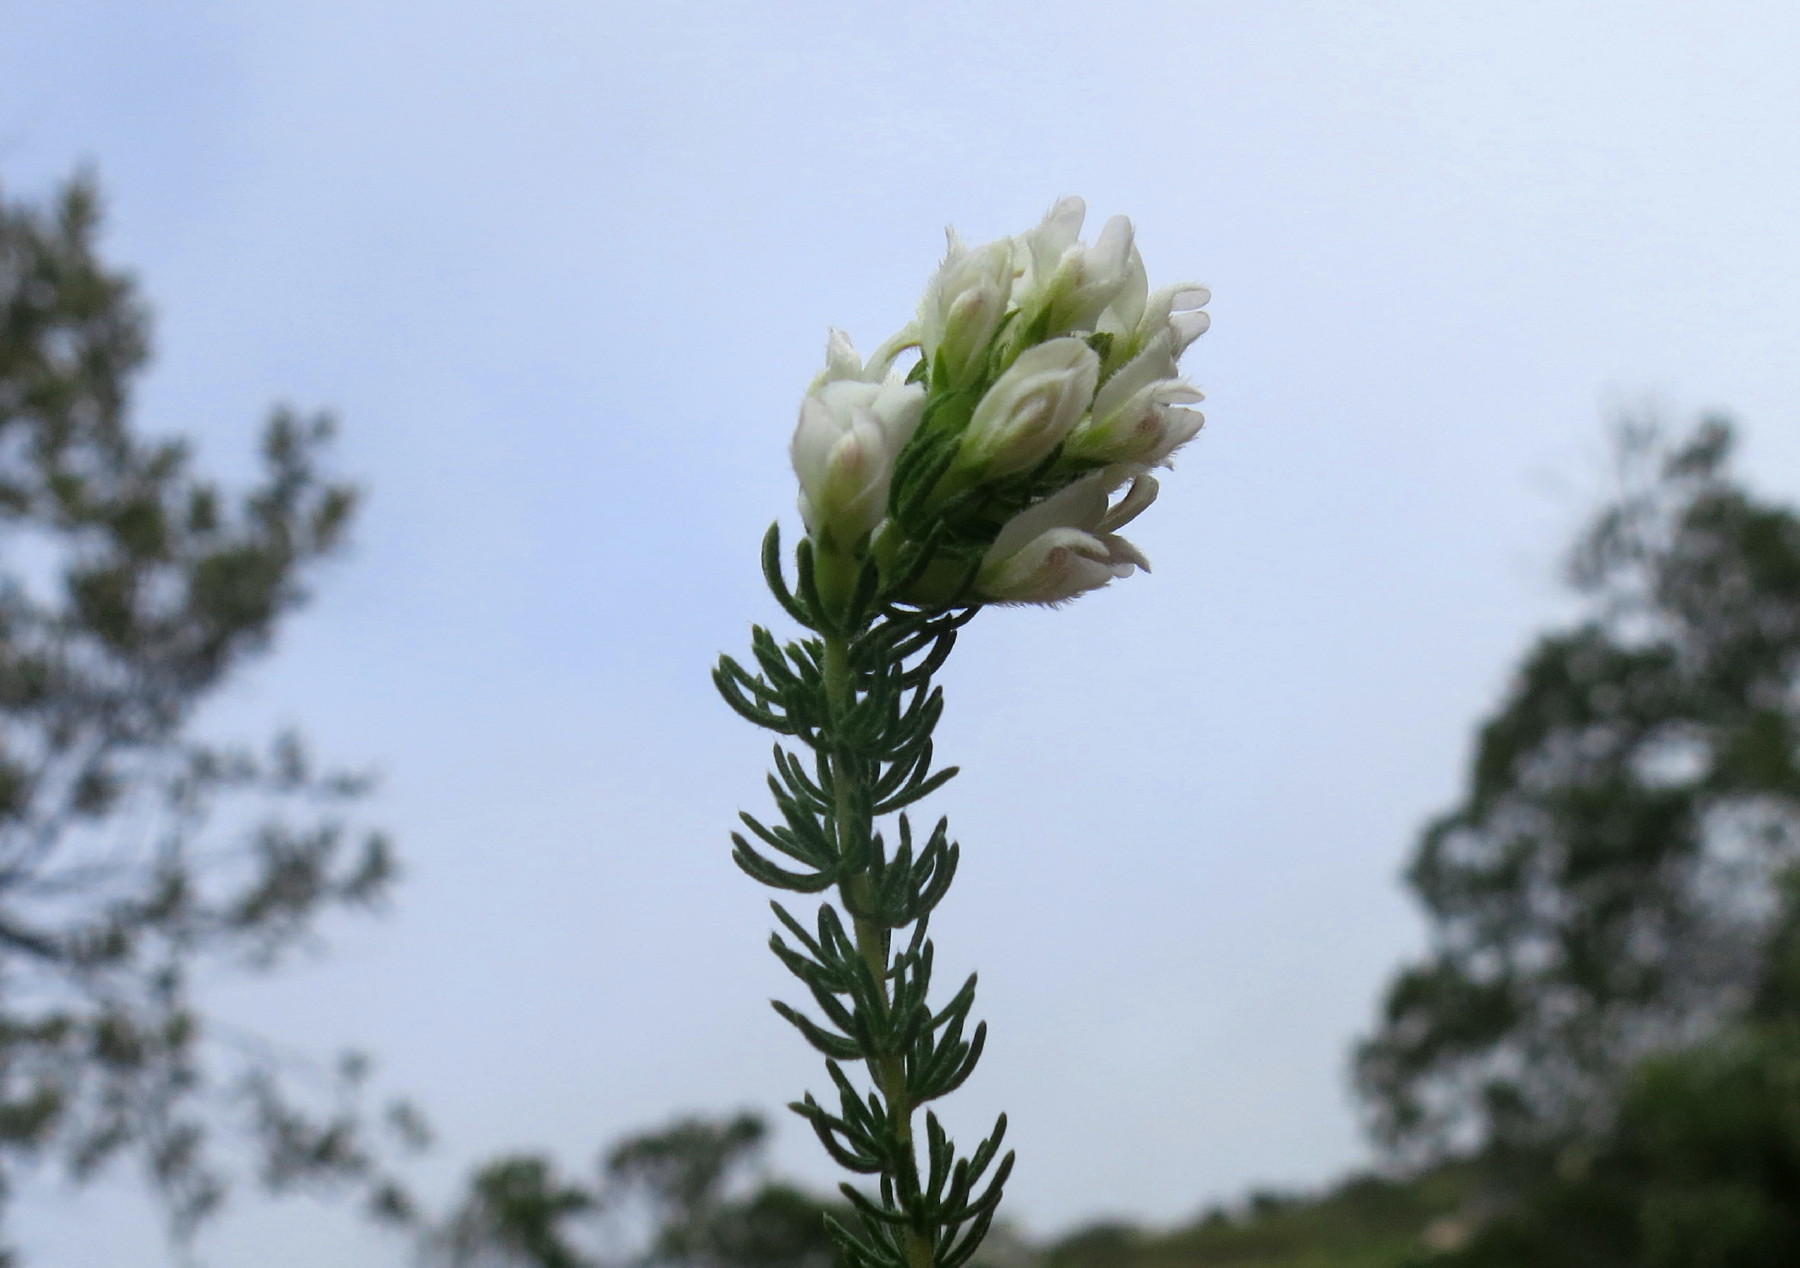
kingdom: Plantae
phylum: Tracheophyta
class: Magnoliopsida
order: Fabales
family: Fabaceae
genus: Aspalathus
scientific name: Aspalathus nigra
